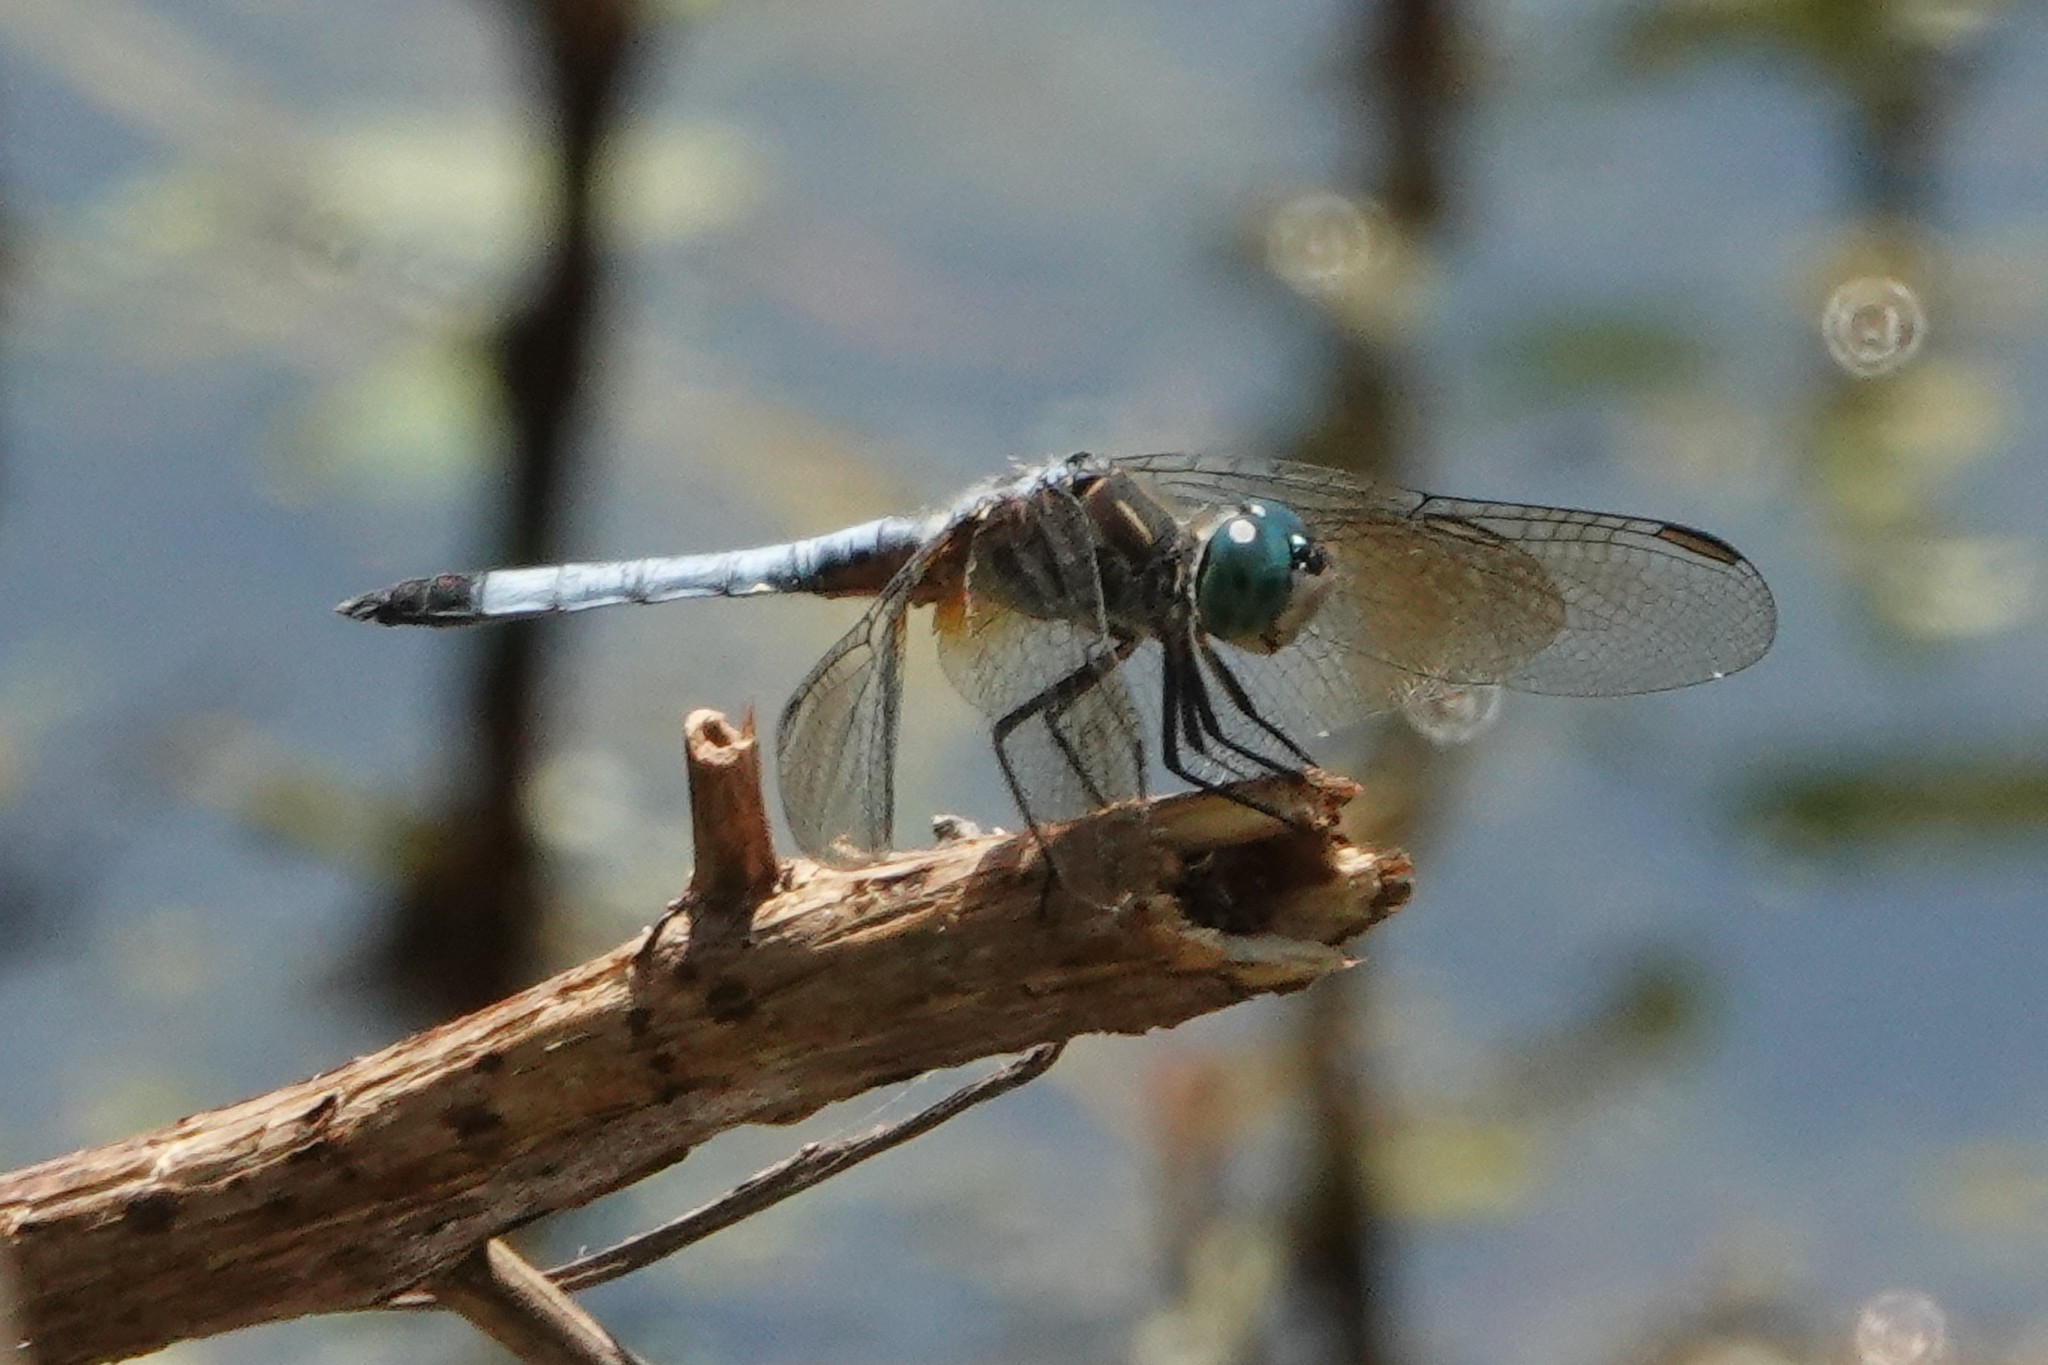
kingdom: Animalia
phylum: Arthropoda
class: Insecta
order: Odonata
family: Libellulidae
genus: Pachydiplax
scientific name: Pachydiplax longipennis
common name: Blue dasher
